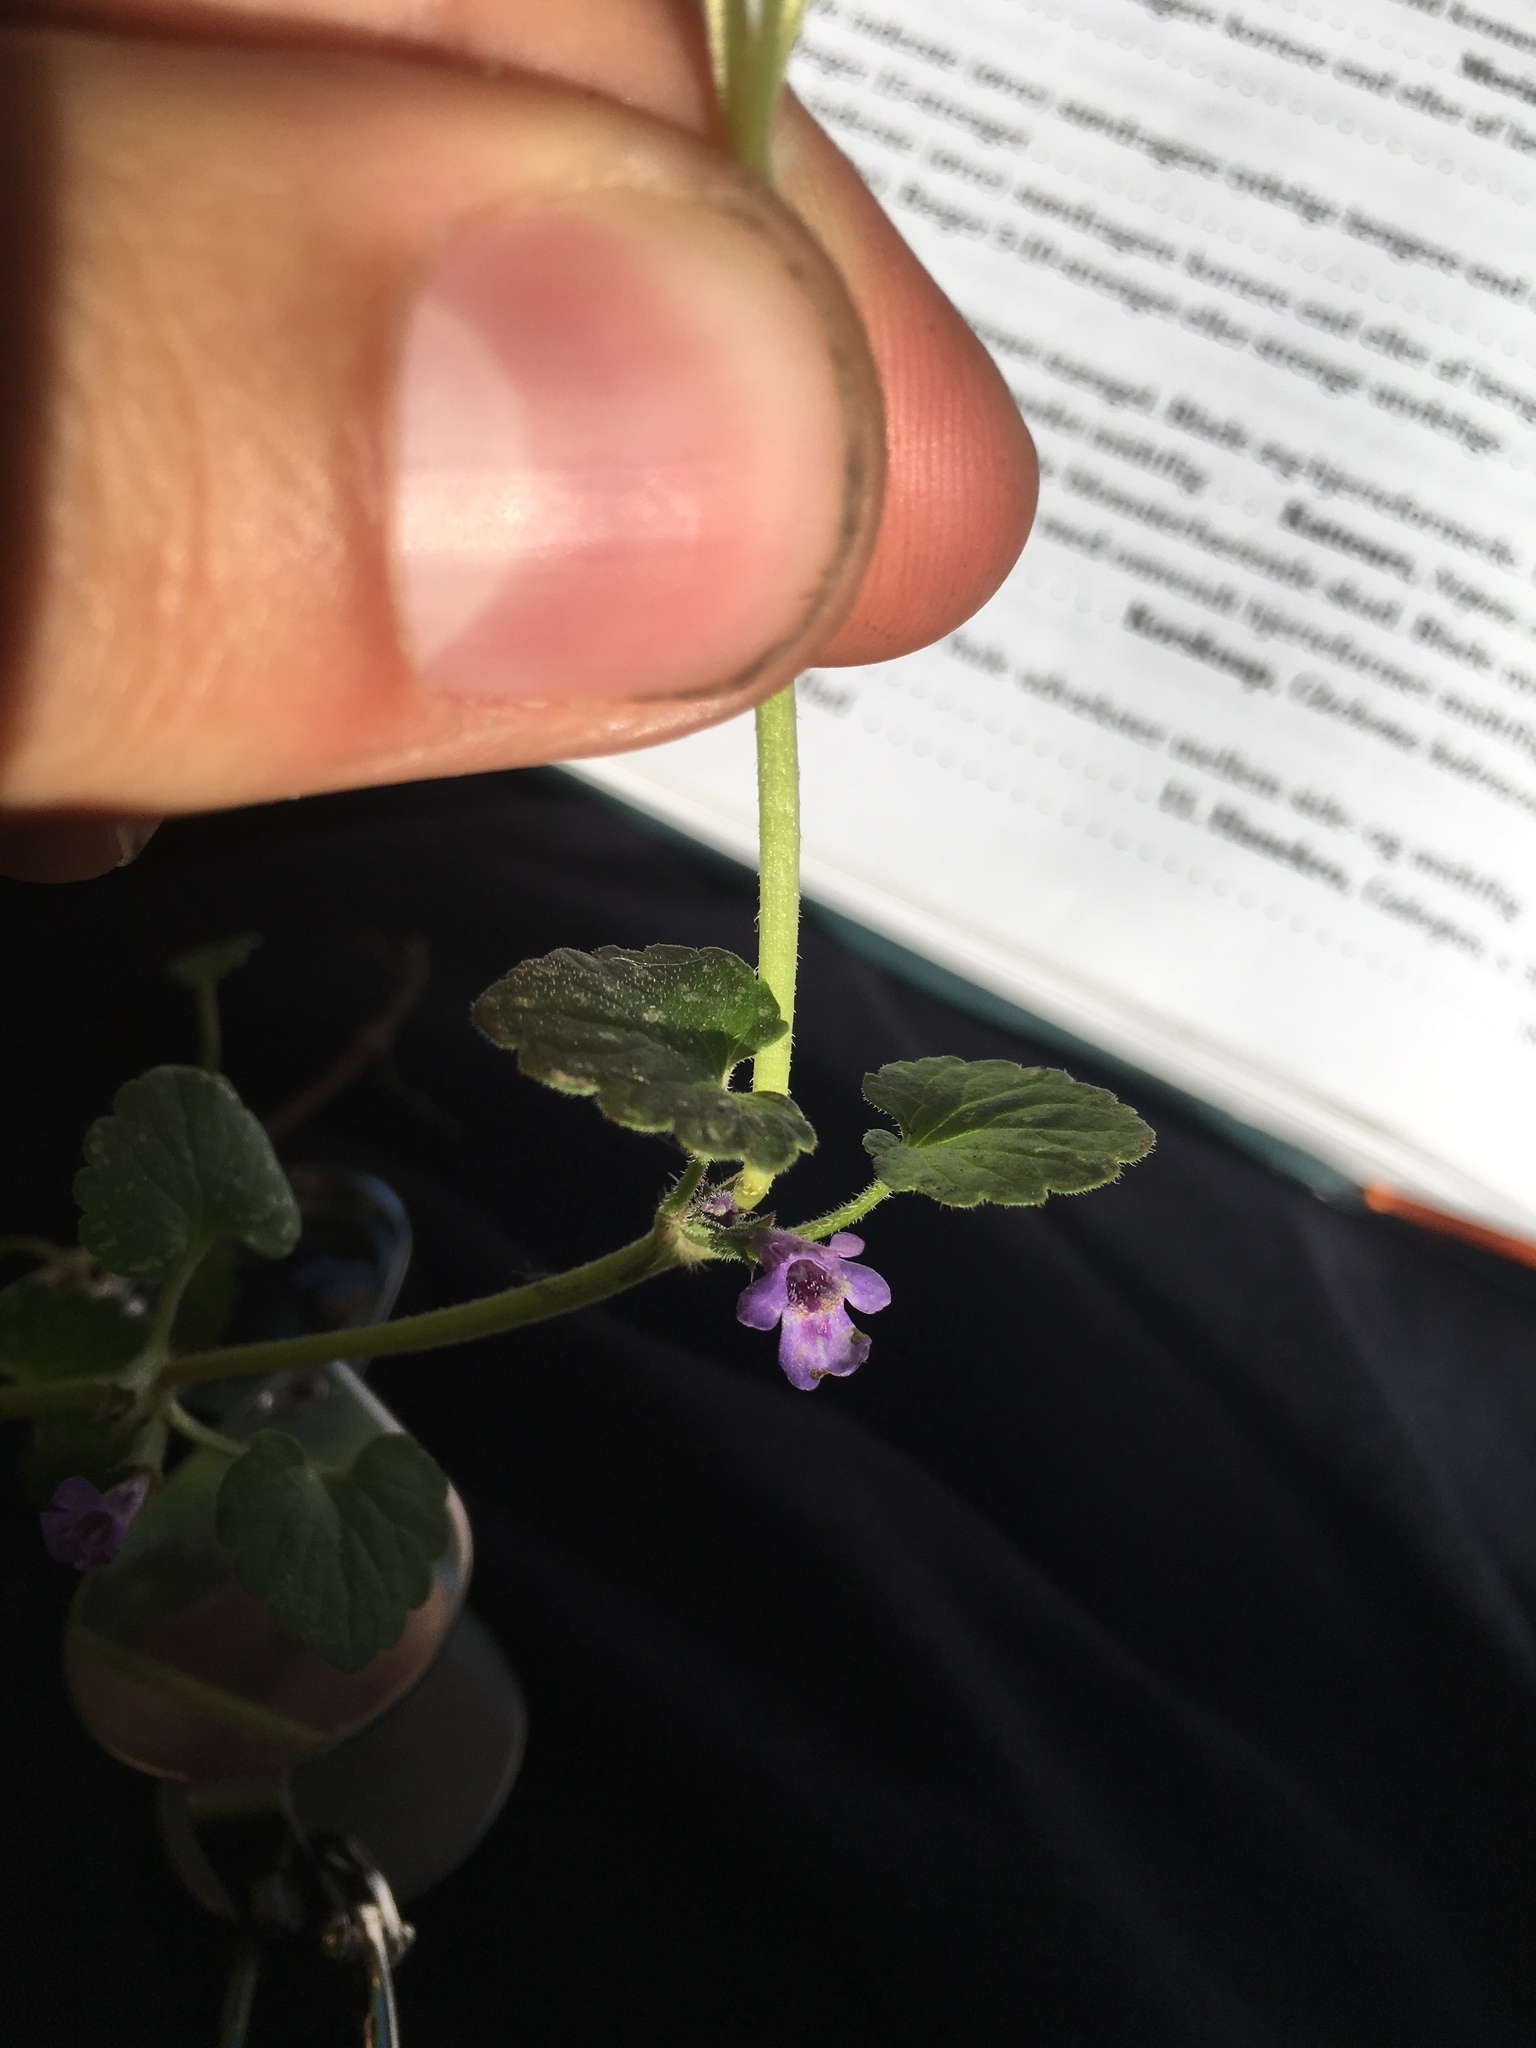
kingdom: Plantae
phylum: Tracheophyta
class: Magnoliopsida
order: Lamiales
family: Lamiaceae
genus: Glechoma
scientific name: Glechoma hederacea
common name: Ground ivy
